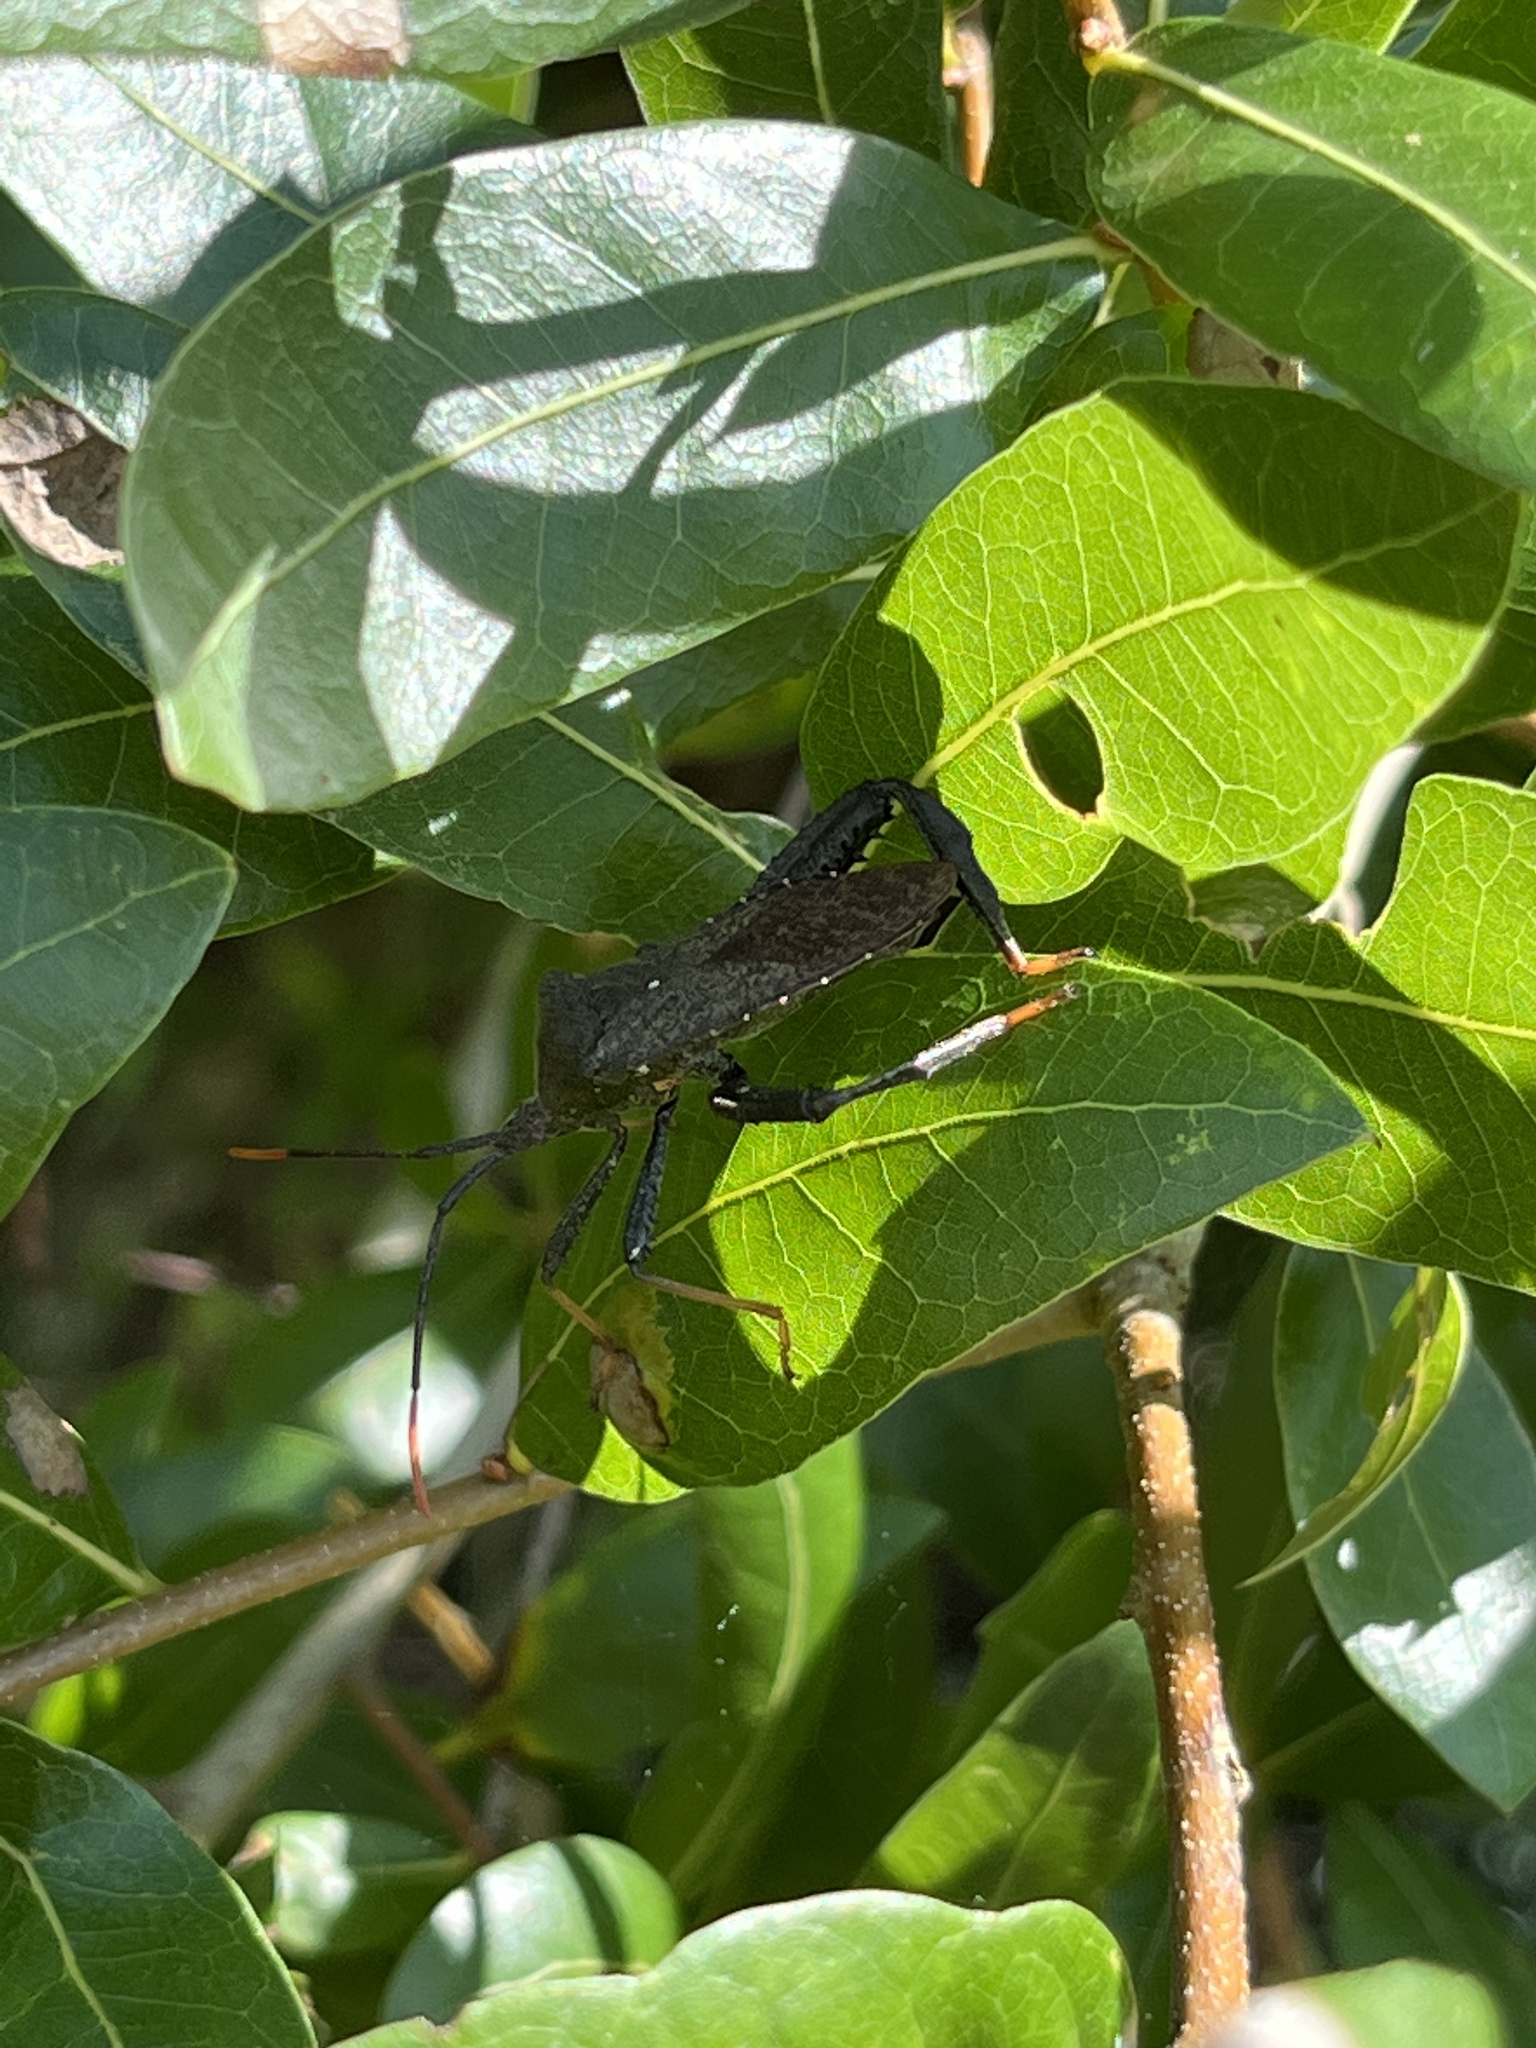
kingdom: Animalia
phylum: Arthropoda
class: Insecta
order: Hemiptera
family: Coreidae
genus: Acanthocephala
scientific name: Acanthocephala terminalis
